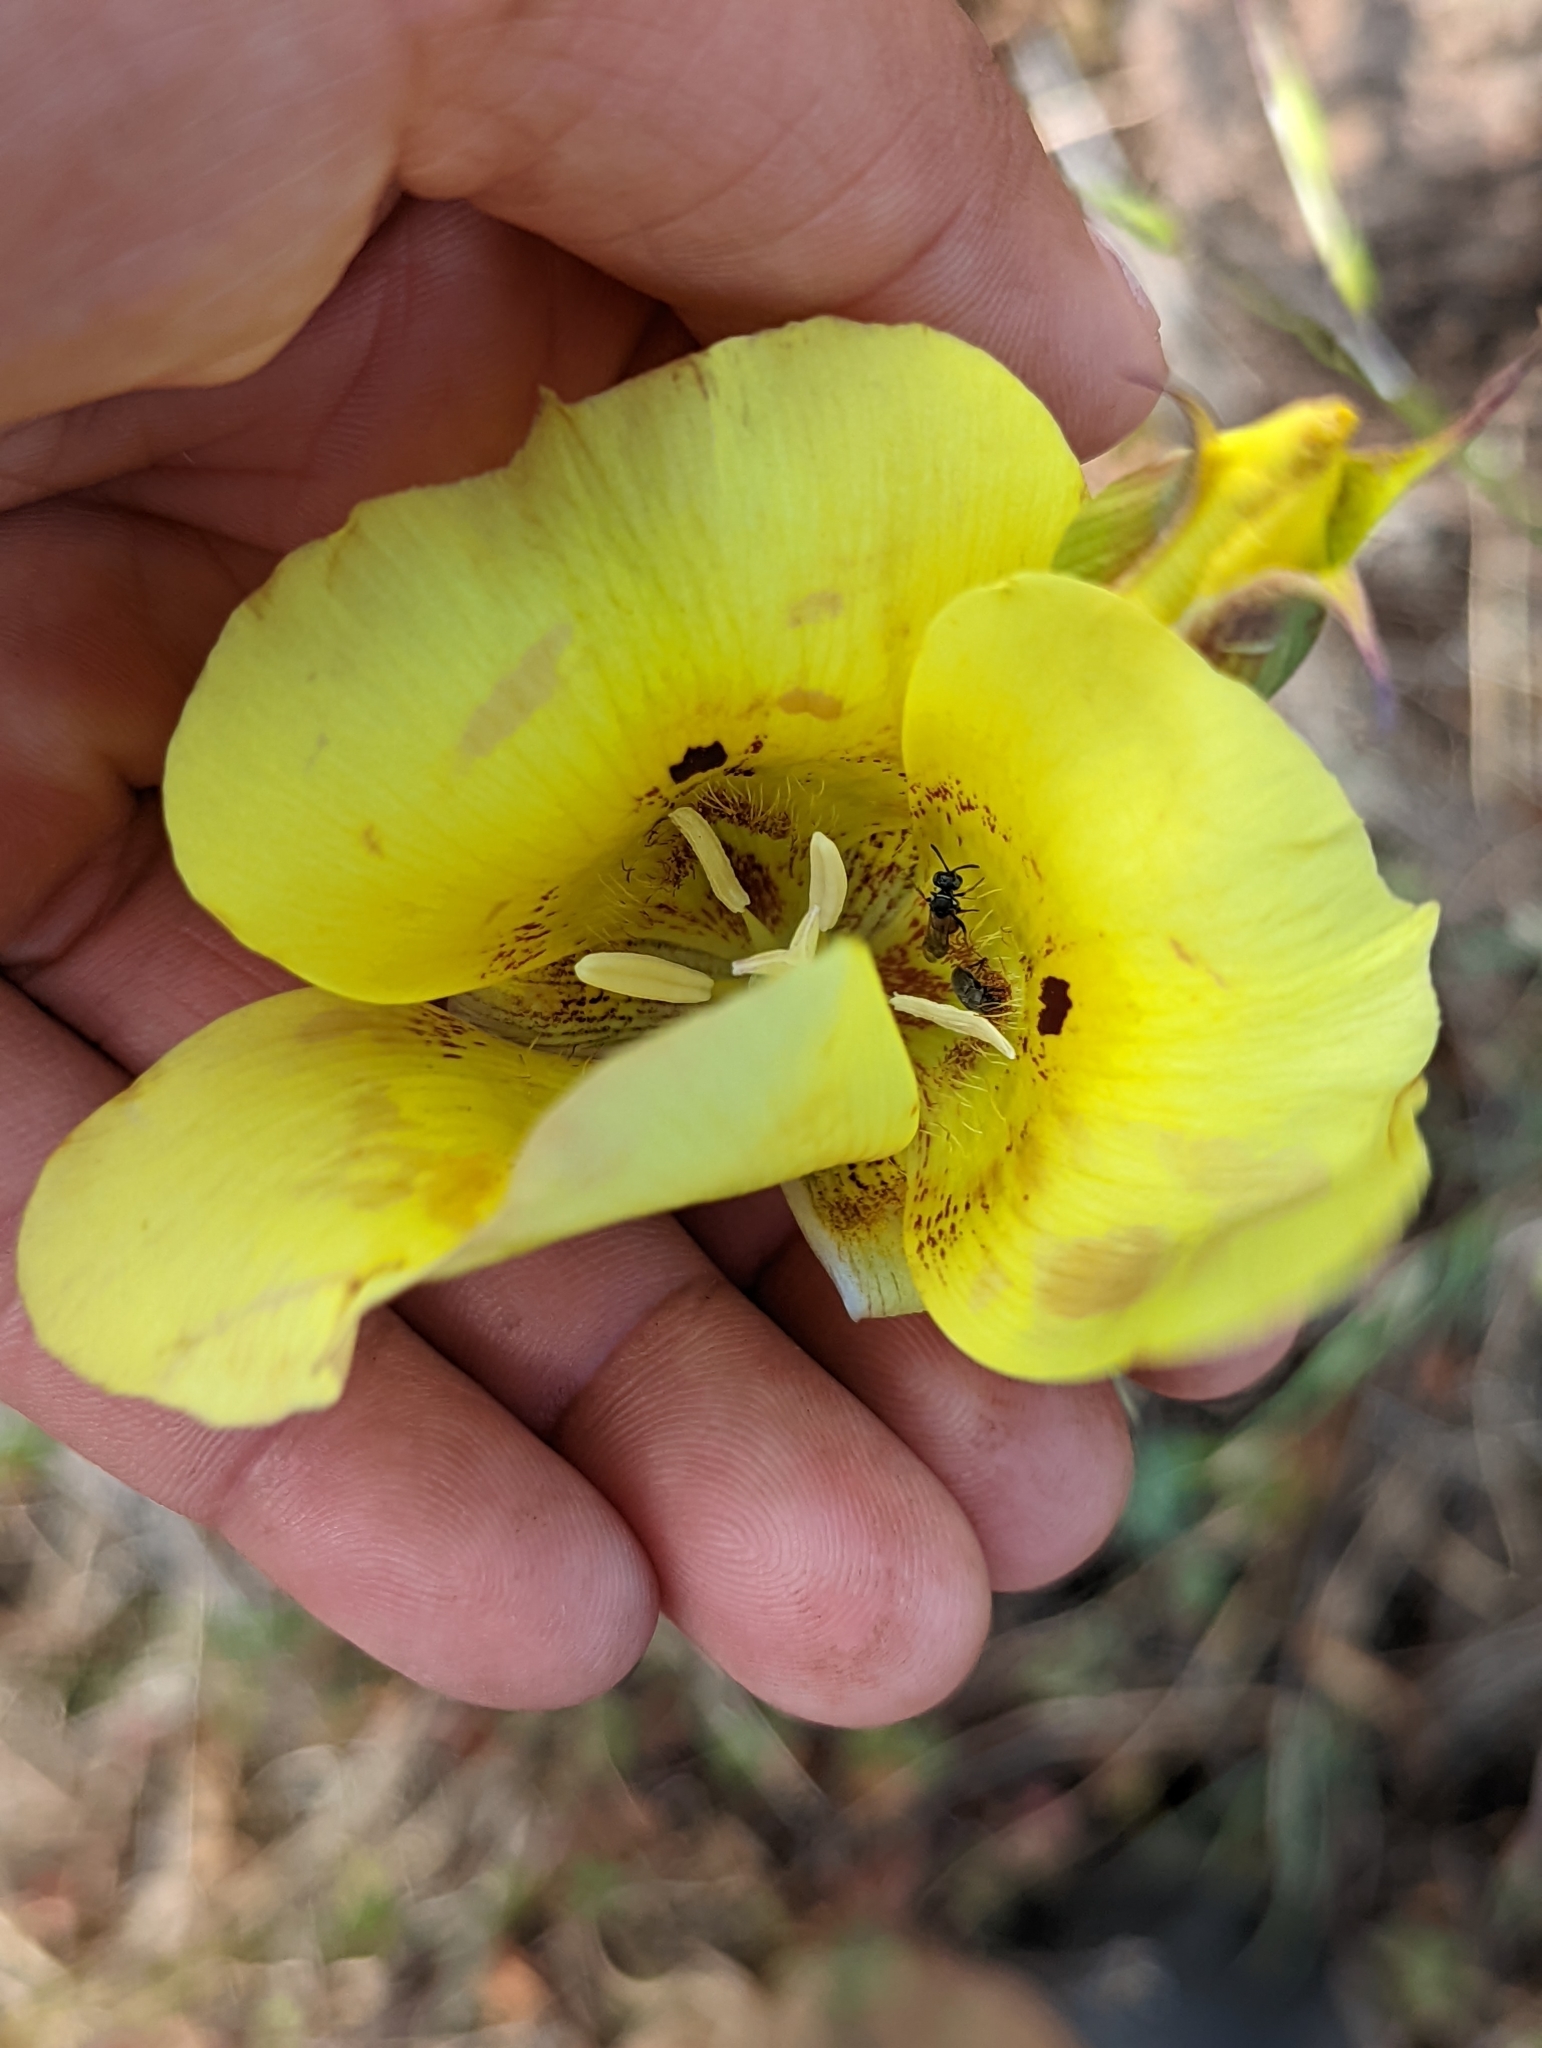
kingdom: Plantae
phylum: Tracheophyta
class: Liliopsida
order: Liliales
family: Liliaceae
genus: Calochortus
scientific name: Calochortus luteus
